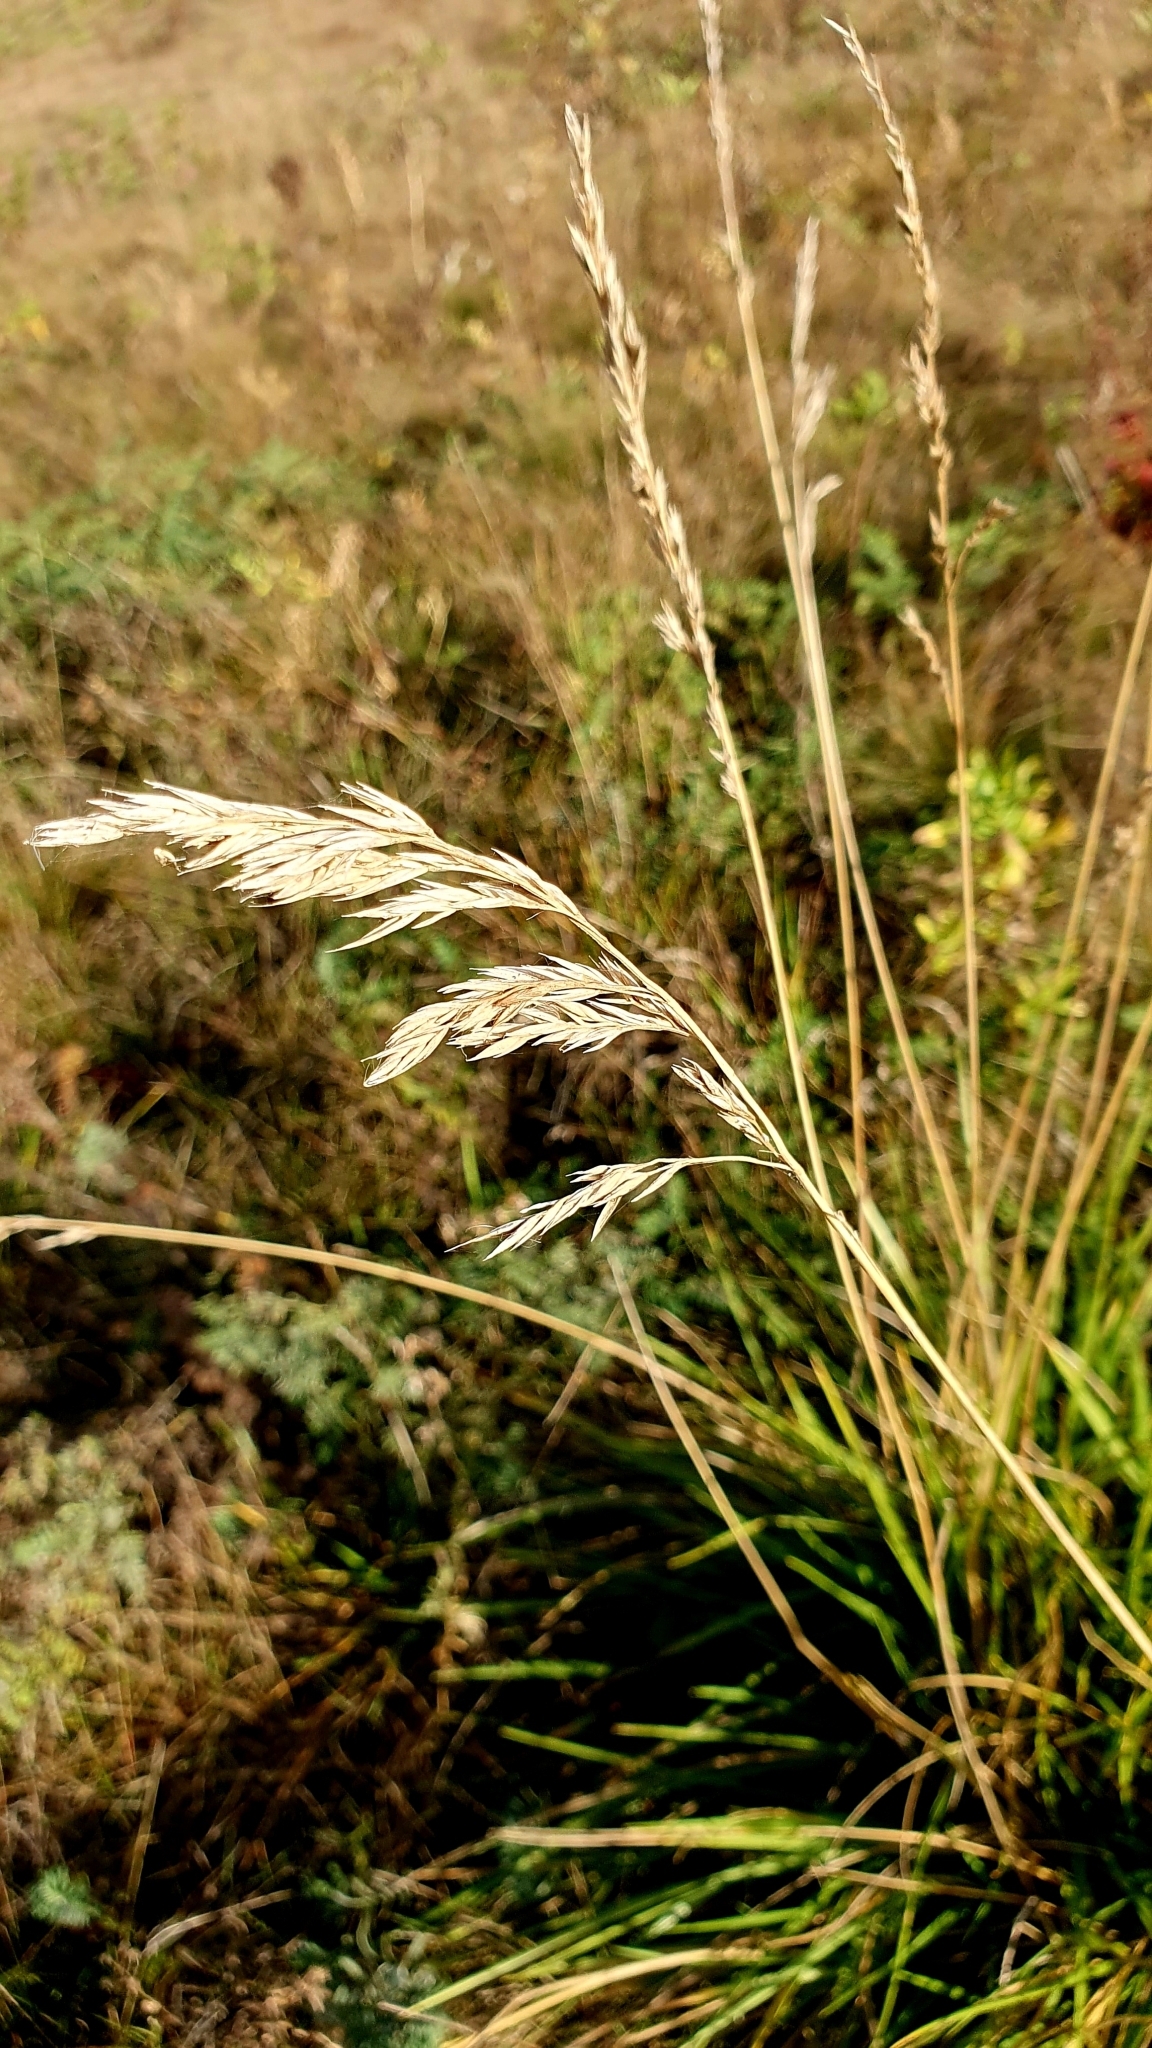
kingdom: Plantae
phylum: Tracheophyta
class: Liliopsida
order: Poales
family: Poaceae
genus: Lolium
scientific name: Lolium arundinaceum
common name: Reed fescue
